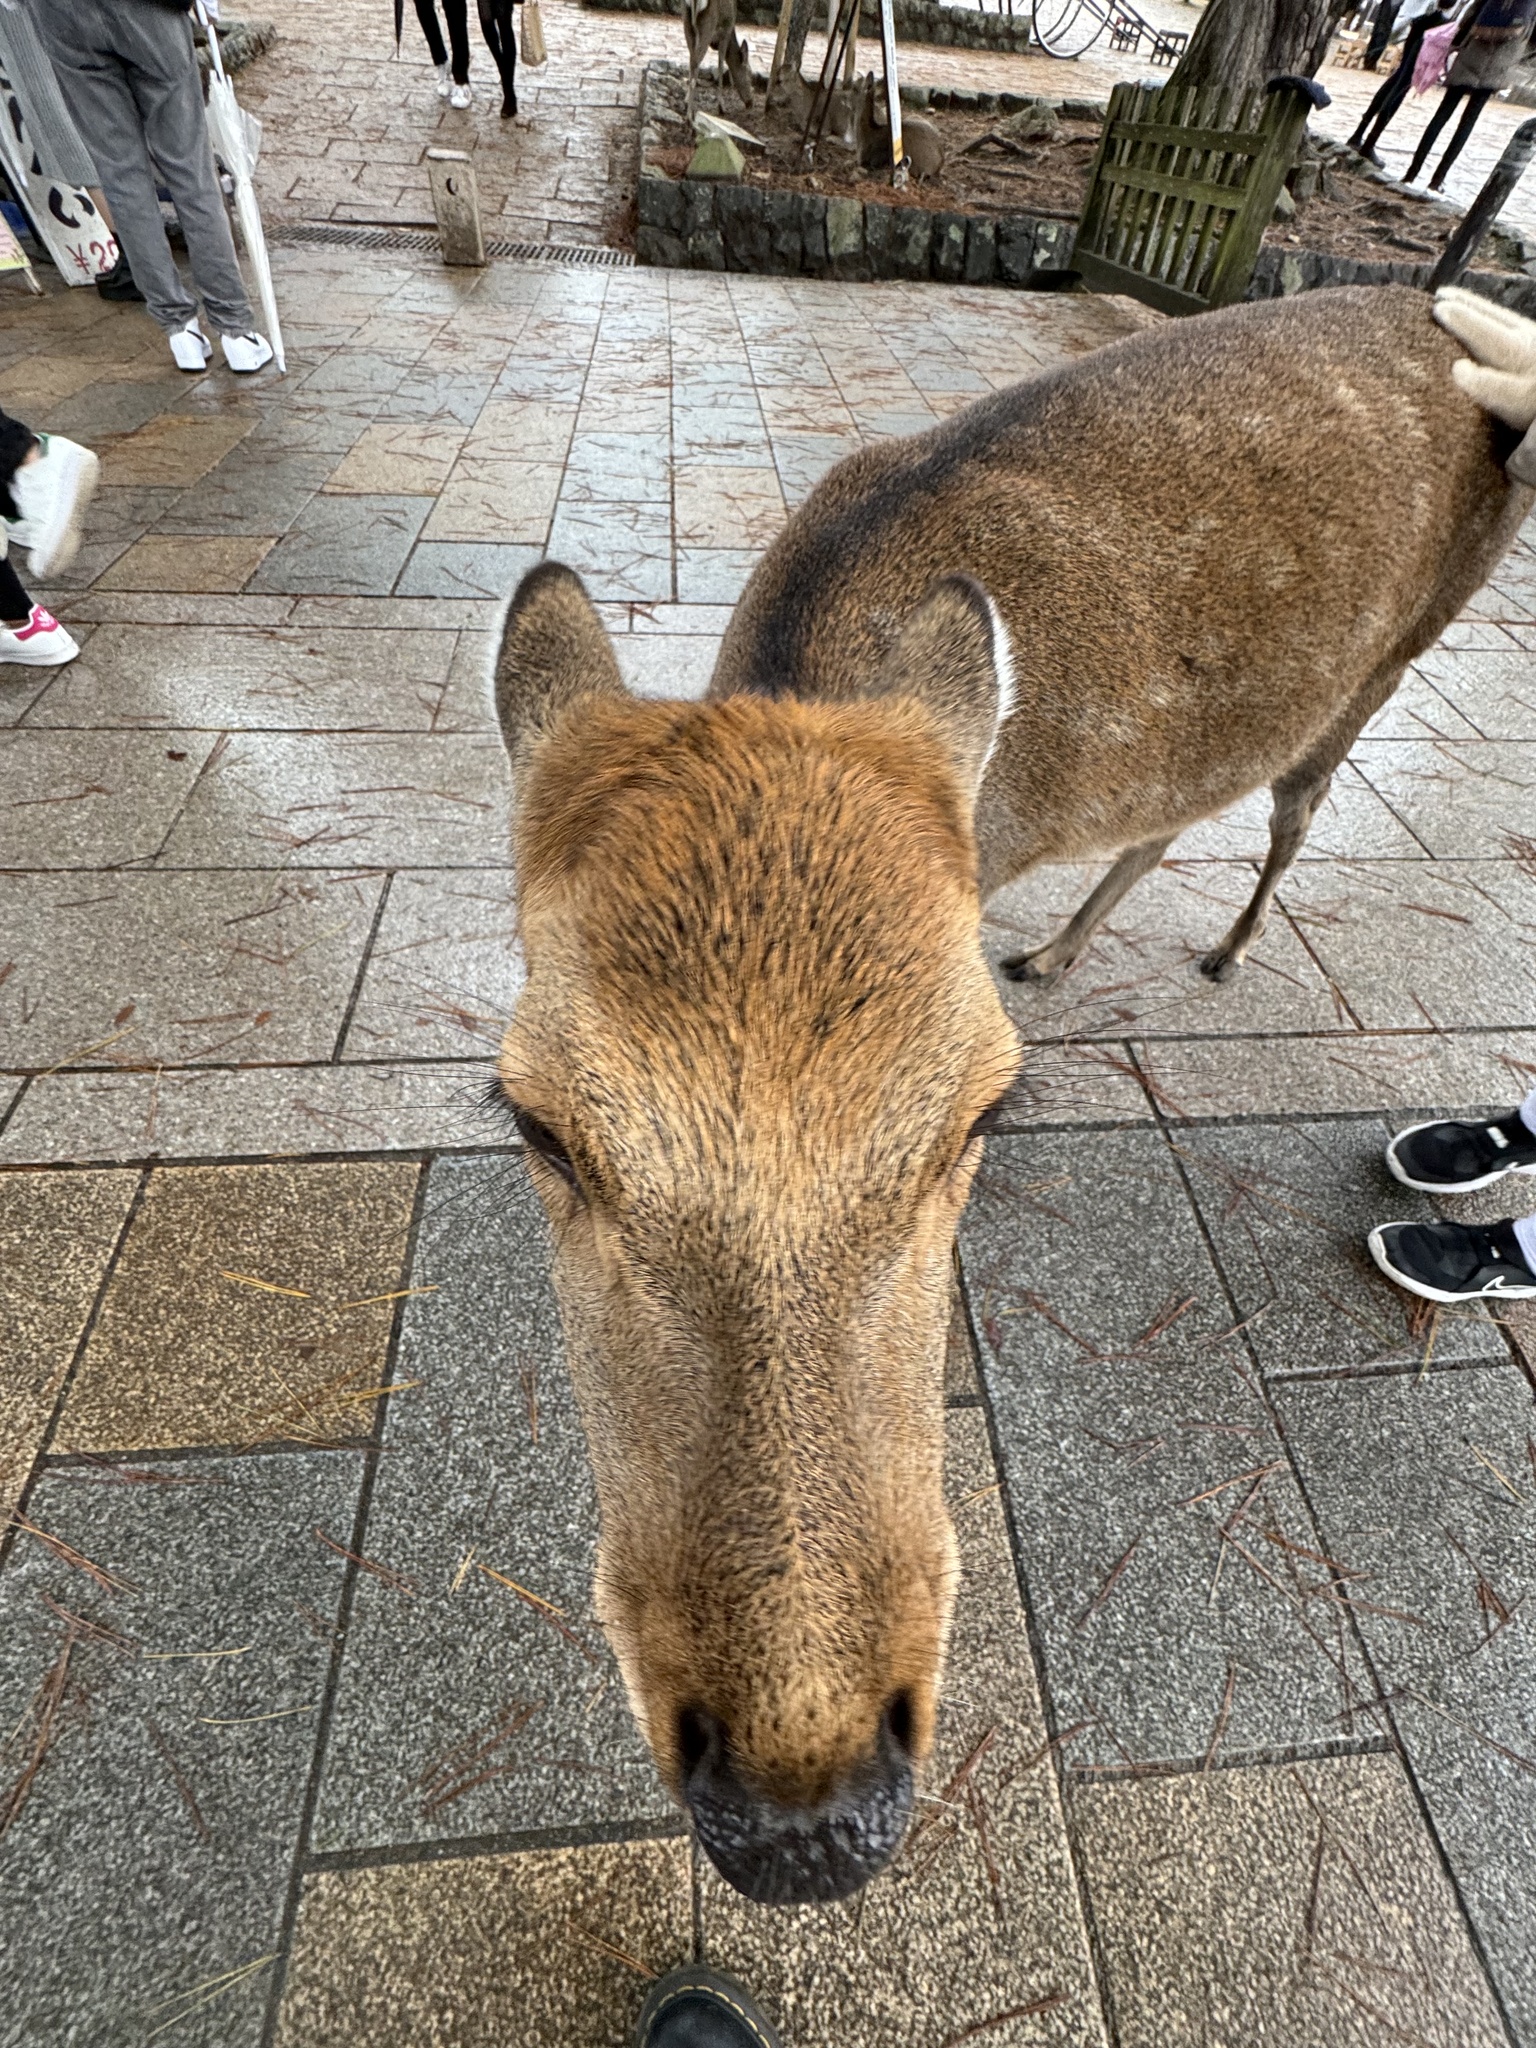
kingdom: Animalia
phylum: Chordata
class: Mammalia
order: Artiodactyla
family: Cervidae
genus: Cervus
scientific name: Cervus nippon
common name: Sika deer
